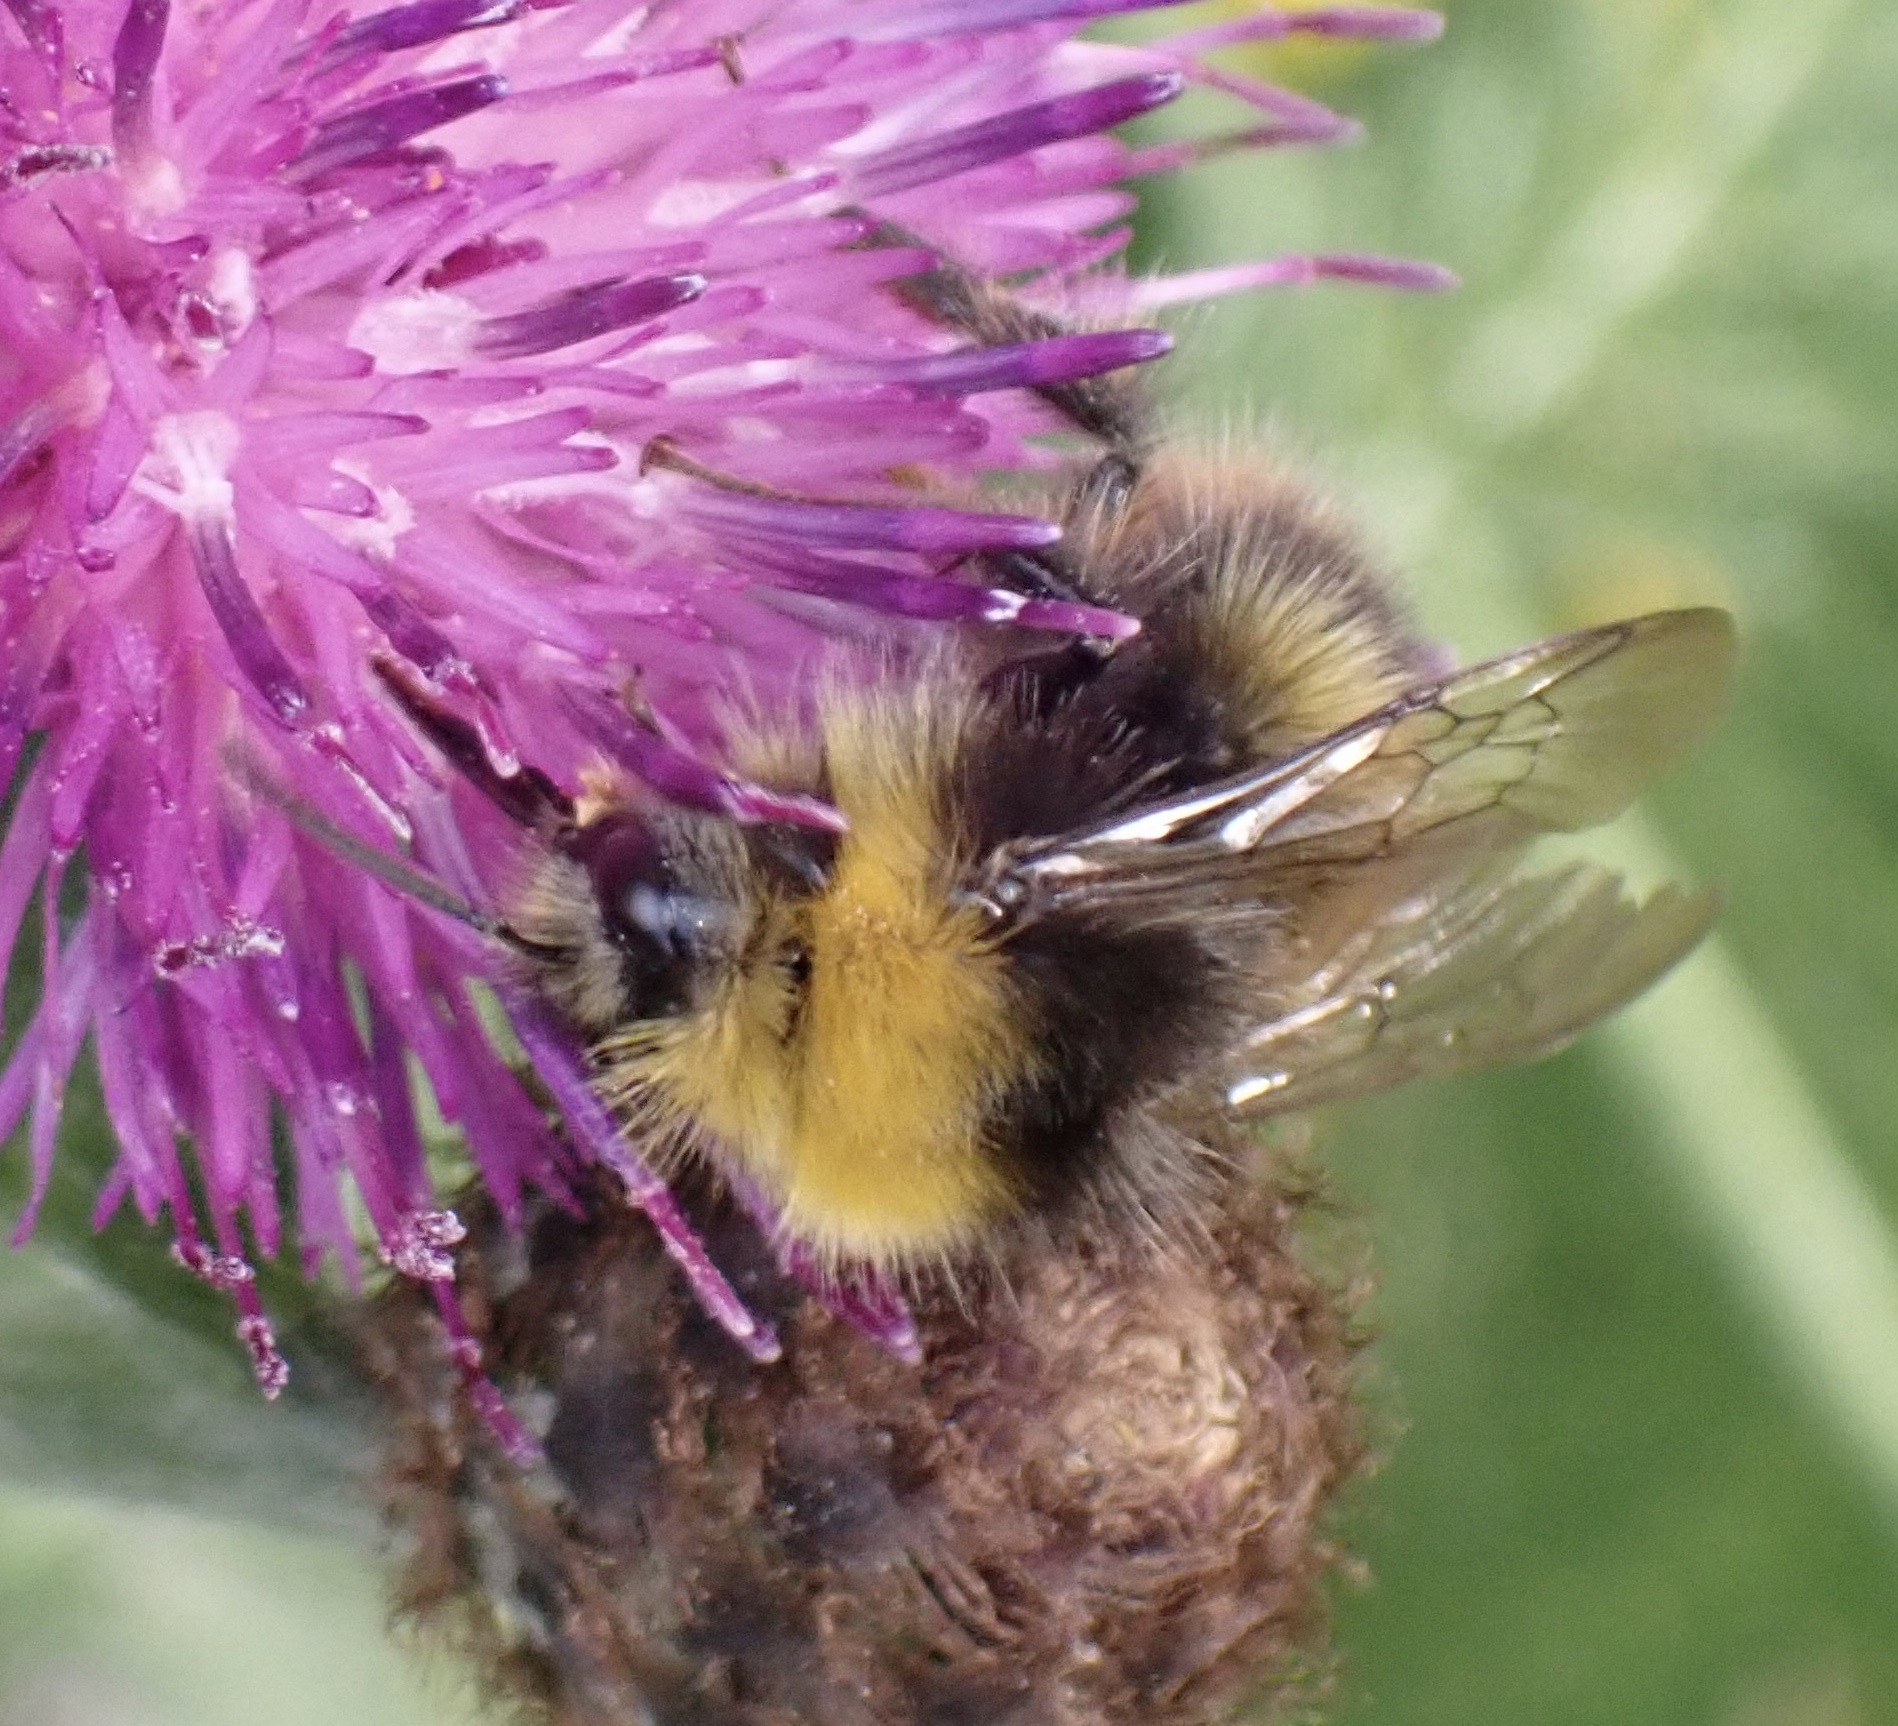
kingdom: Animalia
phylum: Arthropoda
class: Insecta
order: Hymenoptera
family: Apidae
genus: Bombus
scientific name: Bombus pratorum
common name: Early humble-bee
